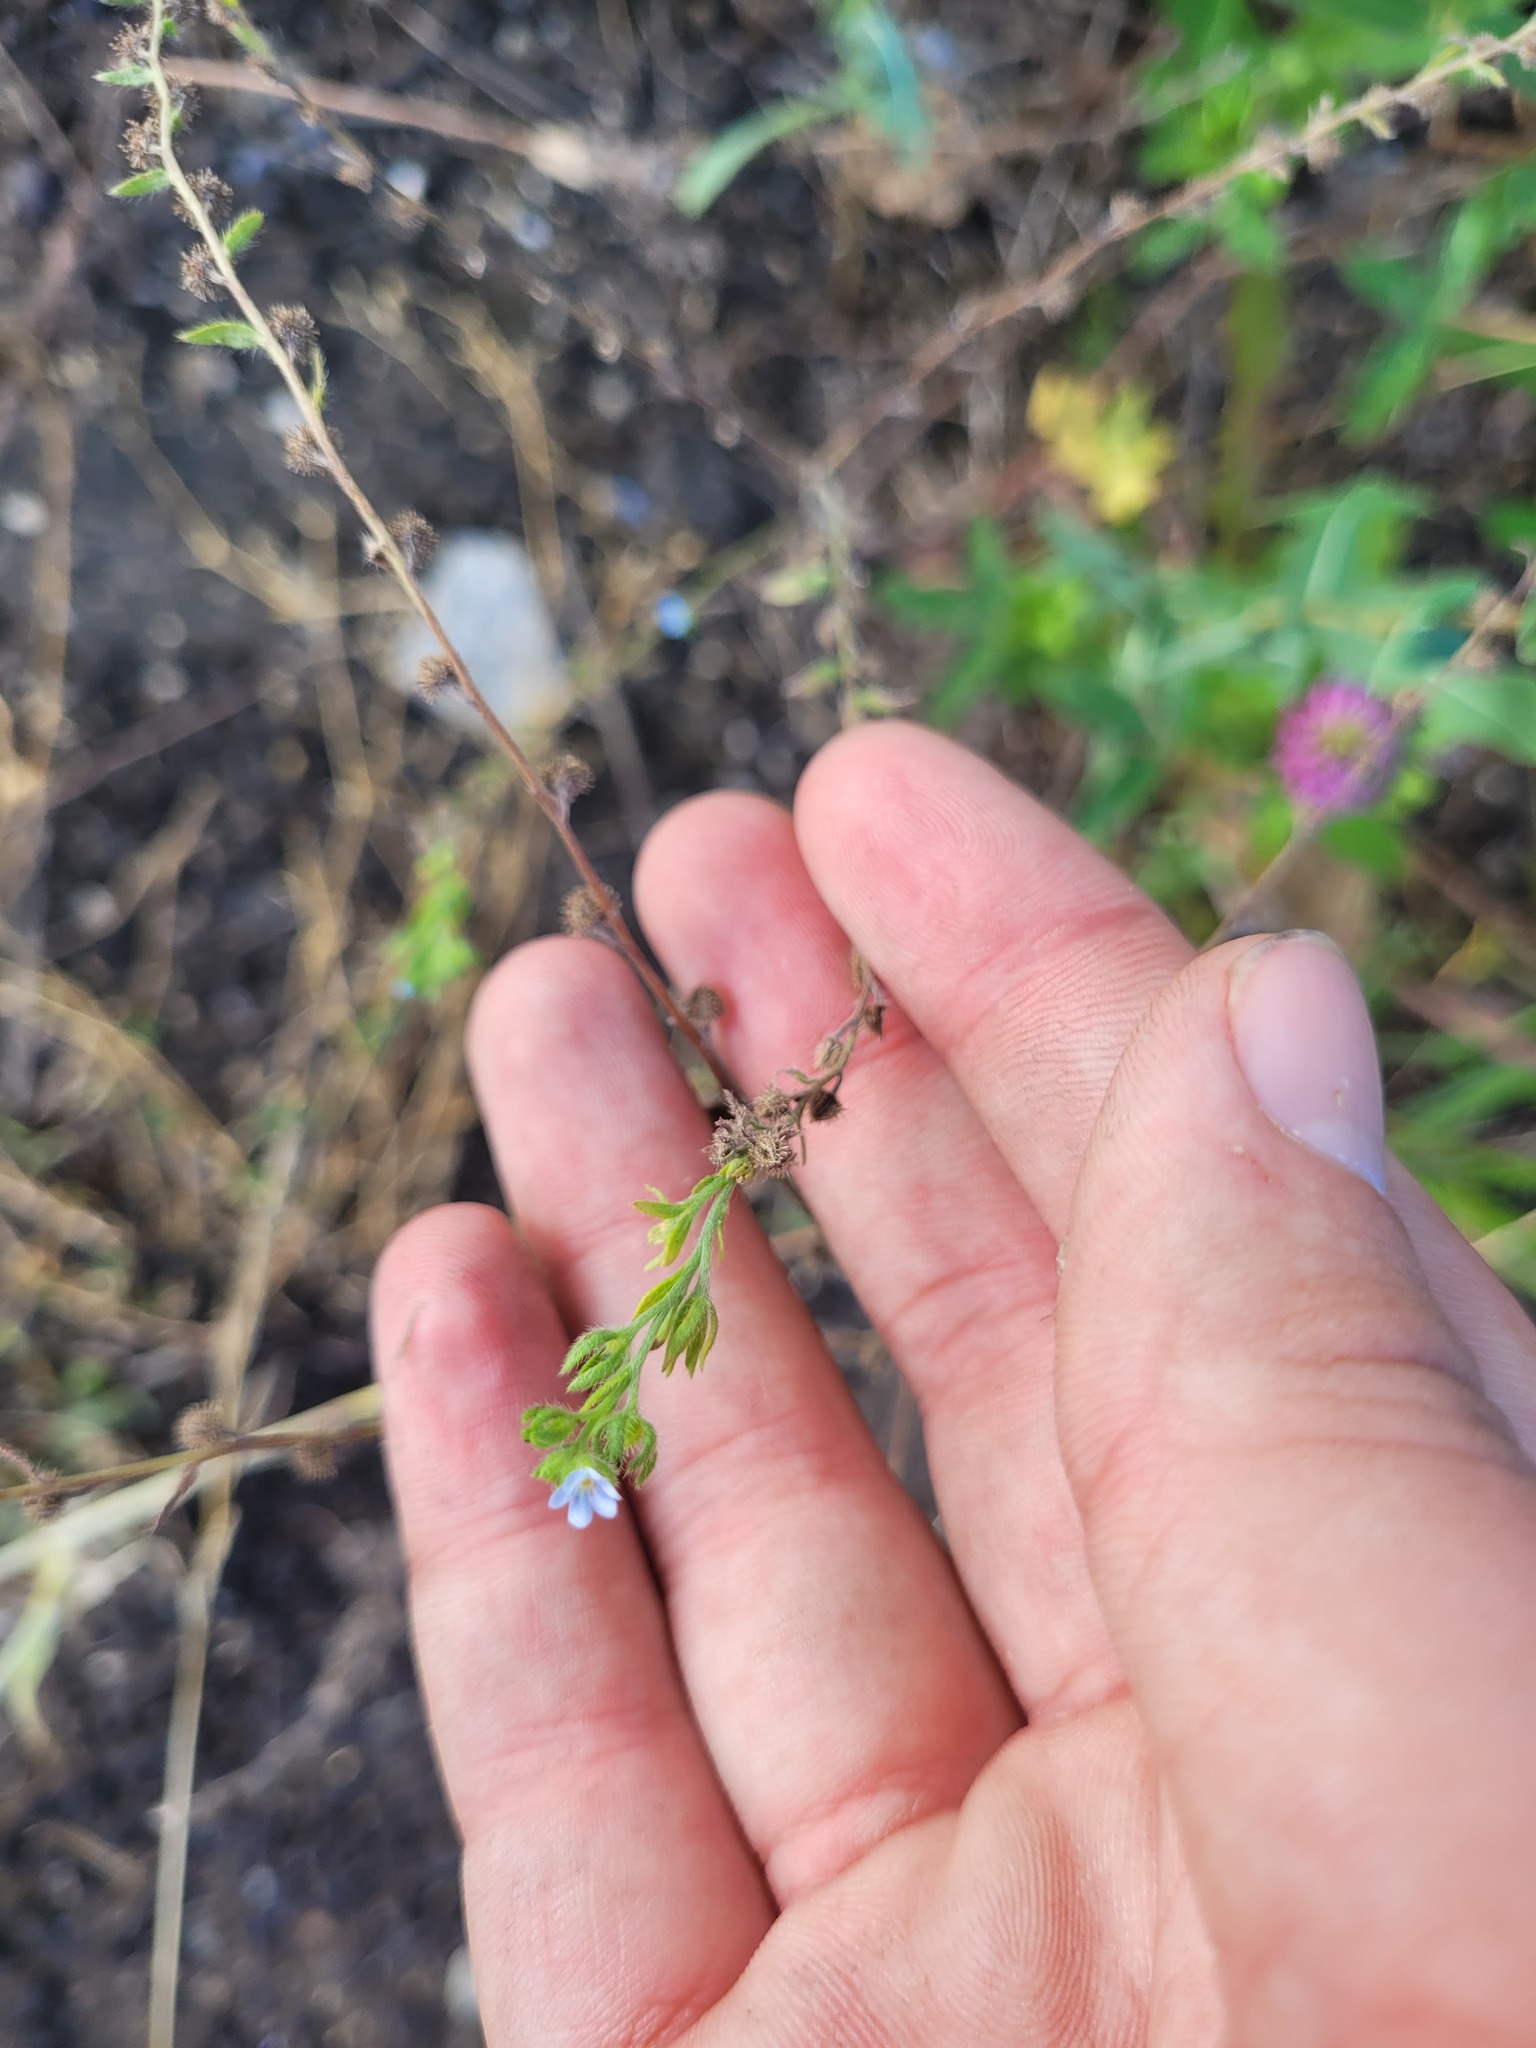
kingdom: Plantae
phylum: Tracheophyta
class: Magnoliopsida
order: Boraginales
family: Boraginaceae
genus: Lappula
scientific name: Lappula squarrosa
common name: European stickseed
